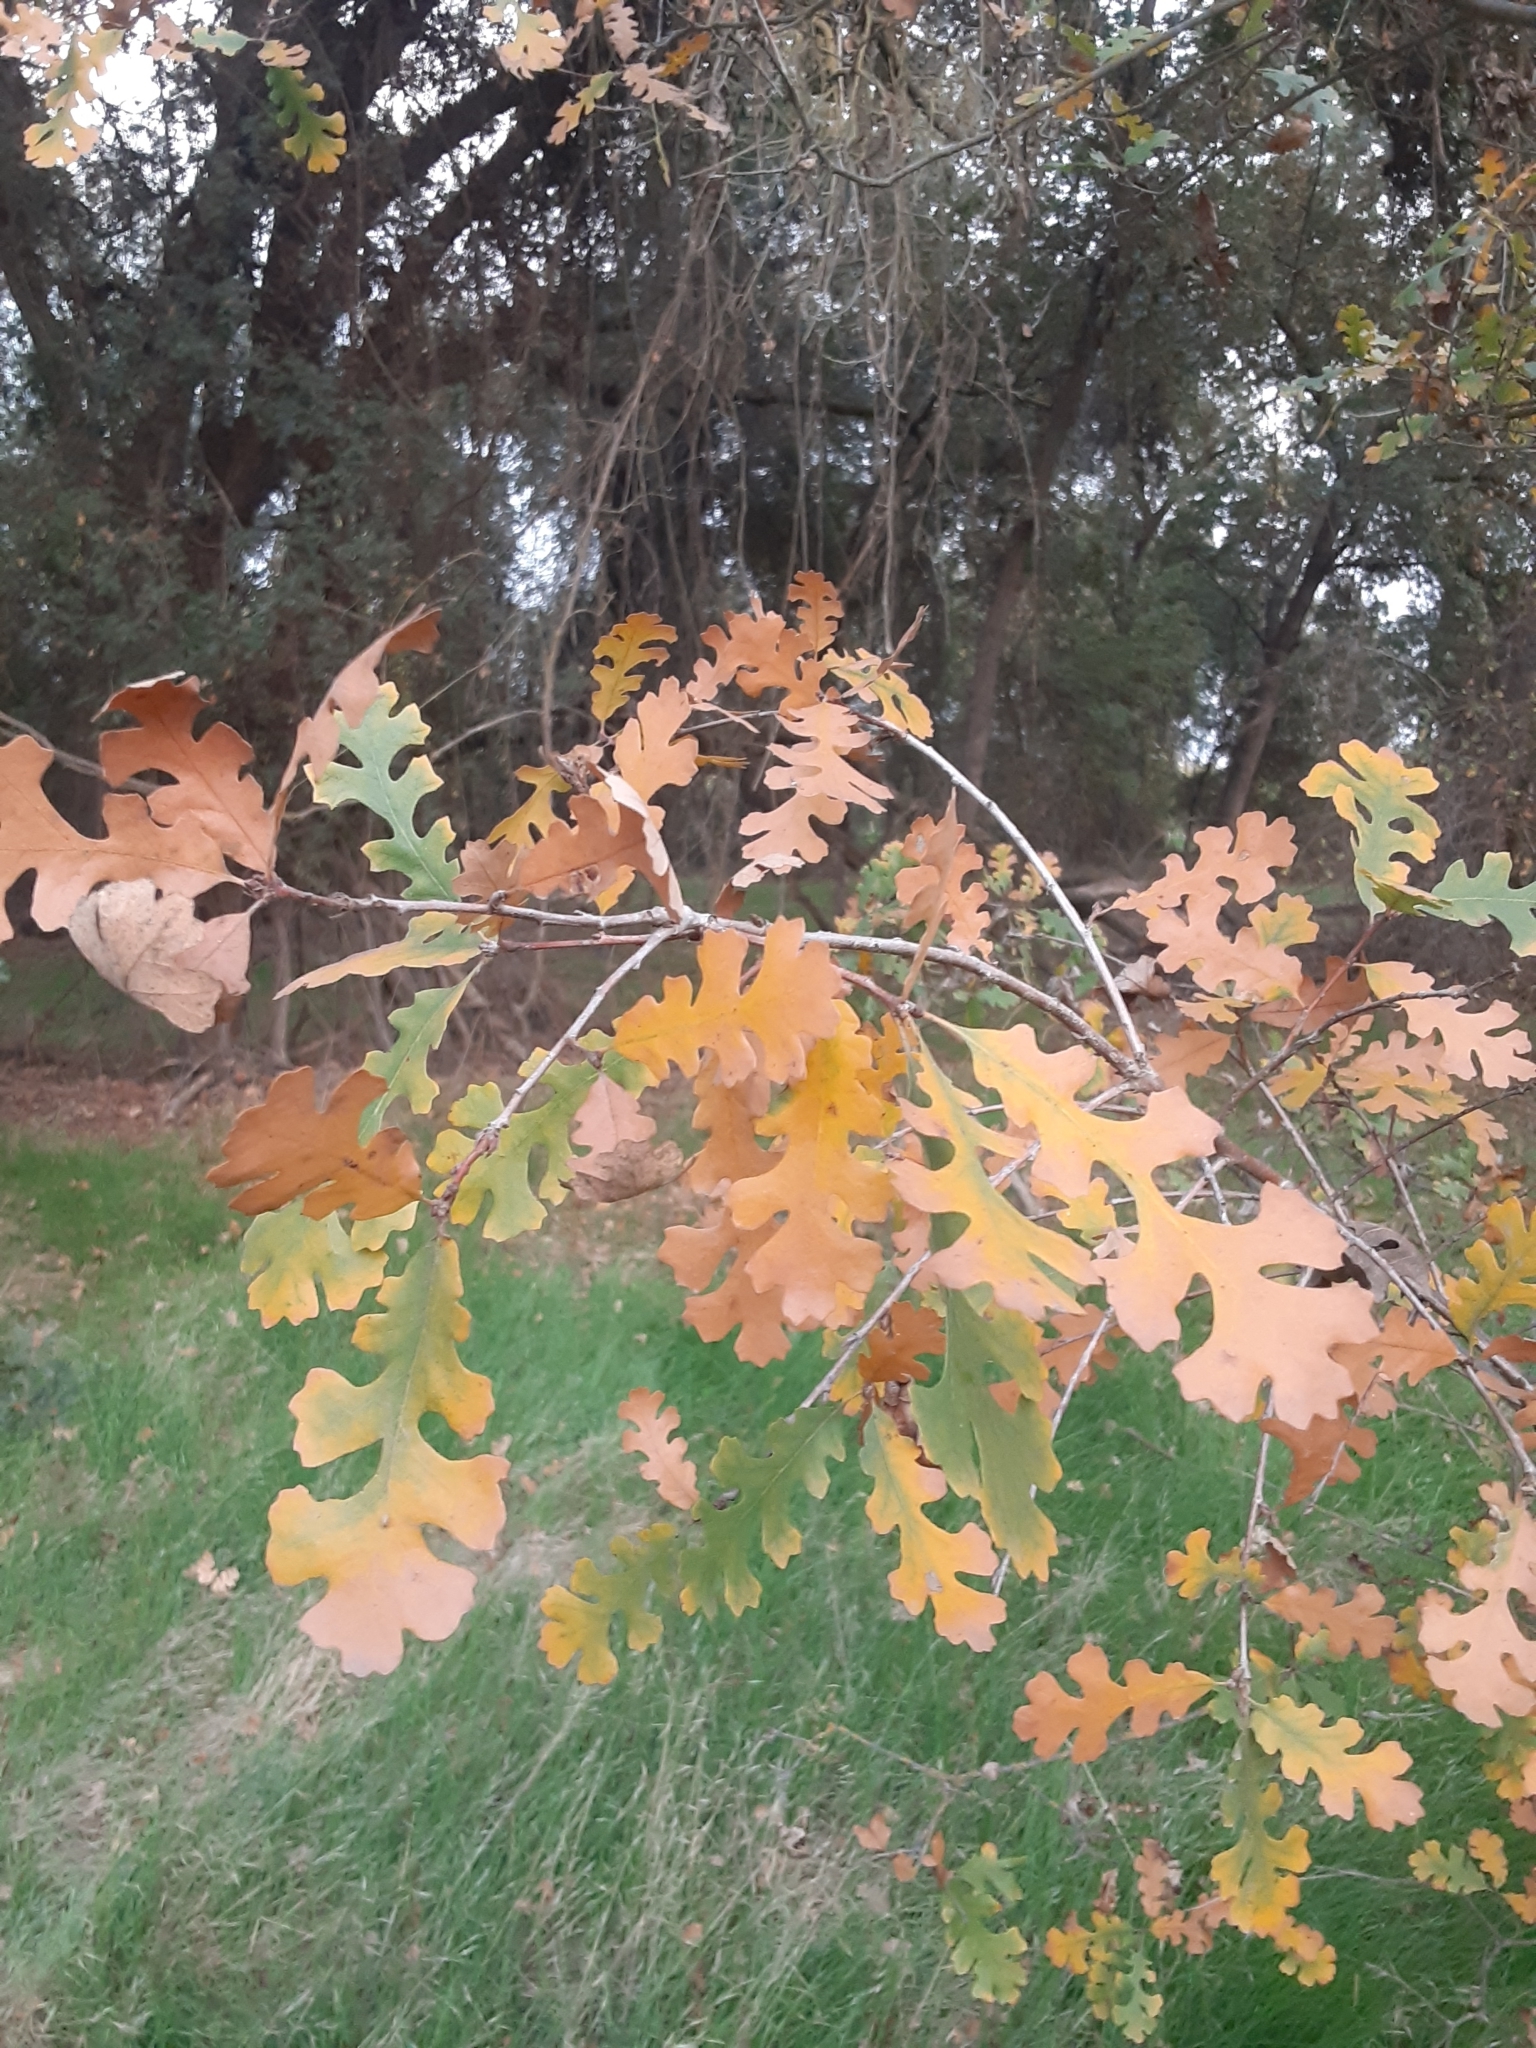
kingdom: Plantae
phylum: Tracheophyta
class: Magnoliopsida
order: Fagales
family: Fagaceae
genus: Quercus
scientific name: Quercus lobata
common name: Valley oak
